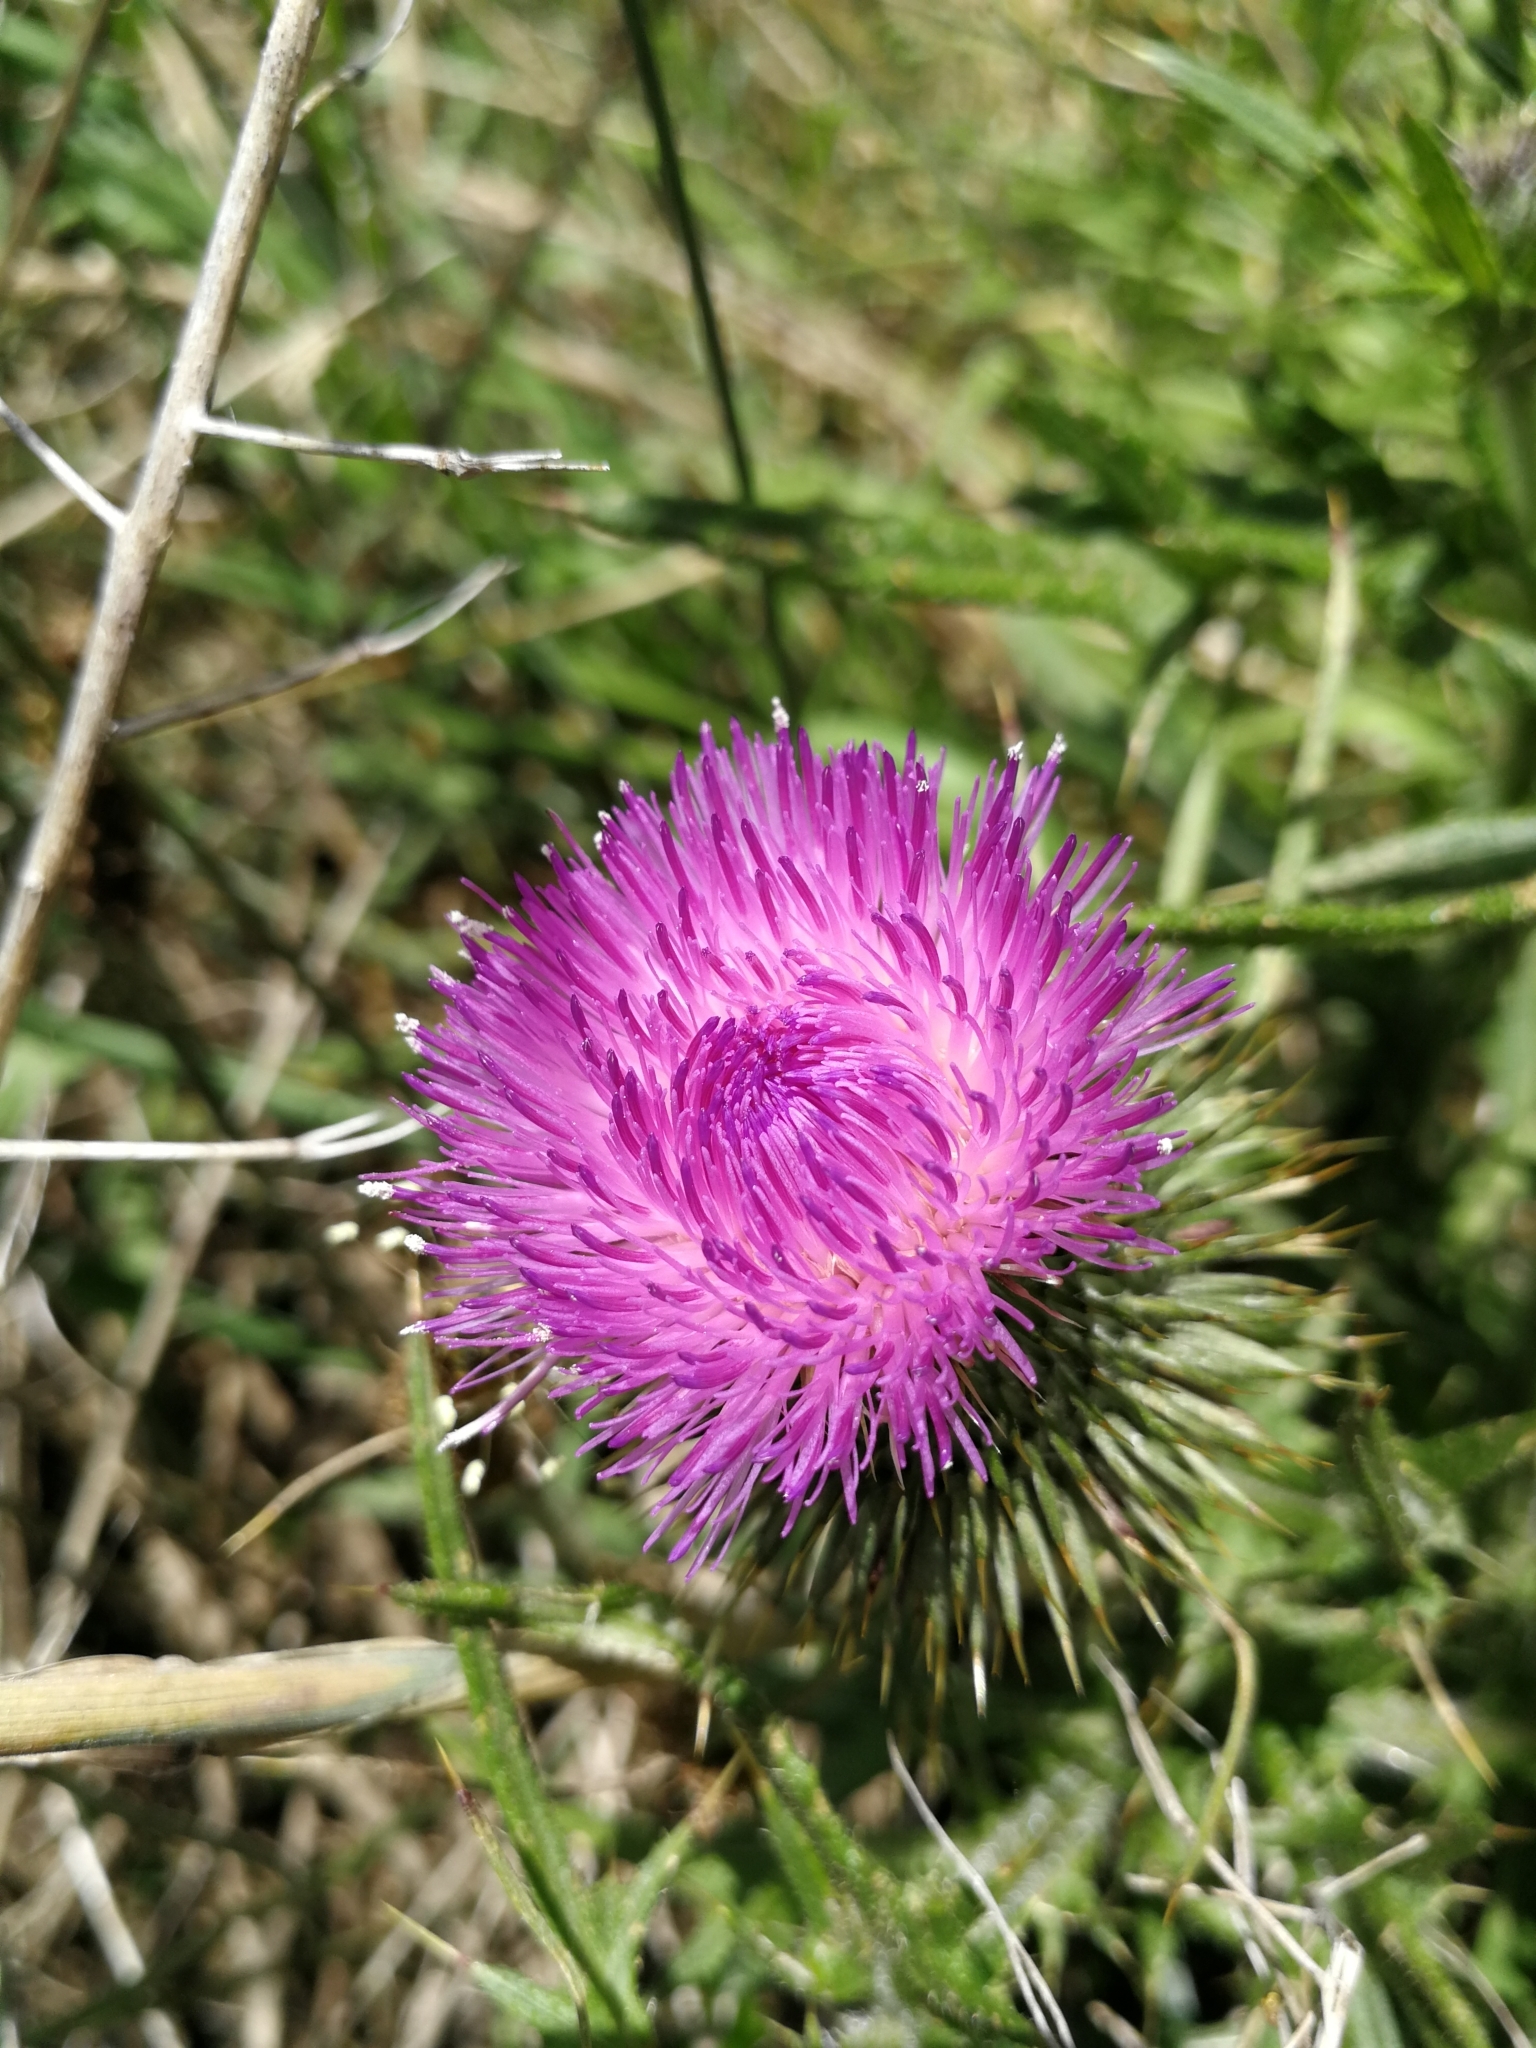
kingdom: Plantae
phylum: Tracheophyta
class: Magnoliopsida
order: Asterales
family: Asteraceae
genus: Cirsium
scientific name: Cirsium vulgare
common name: Bull thistle
